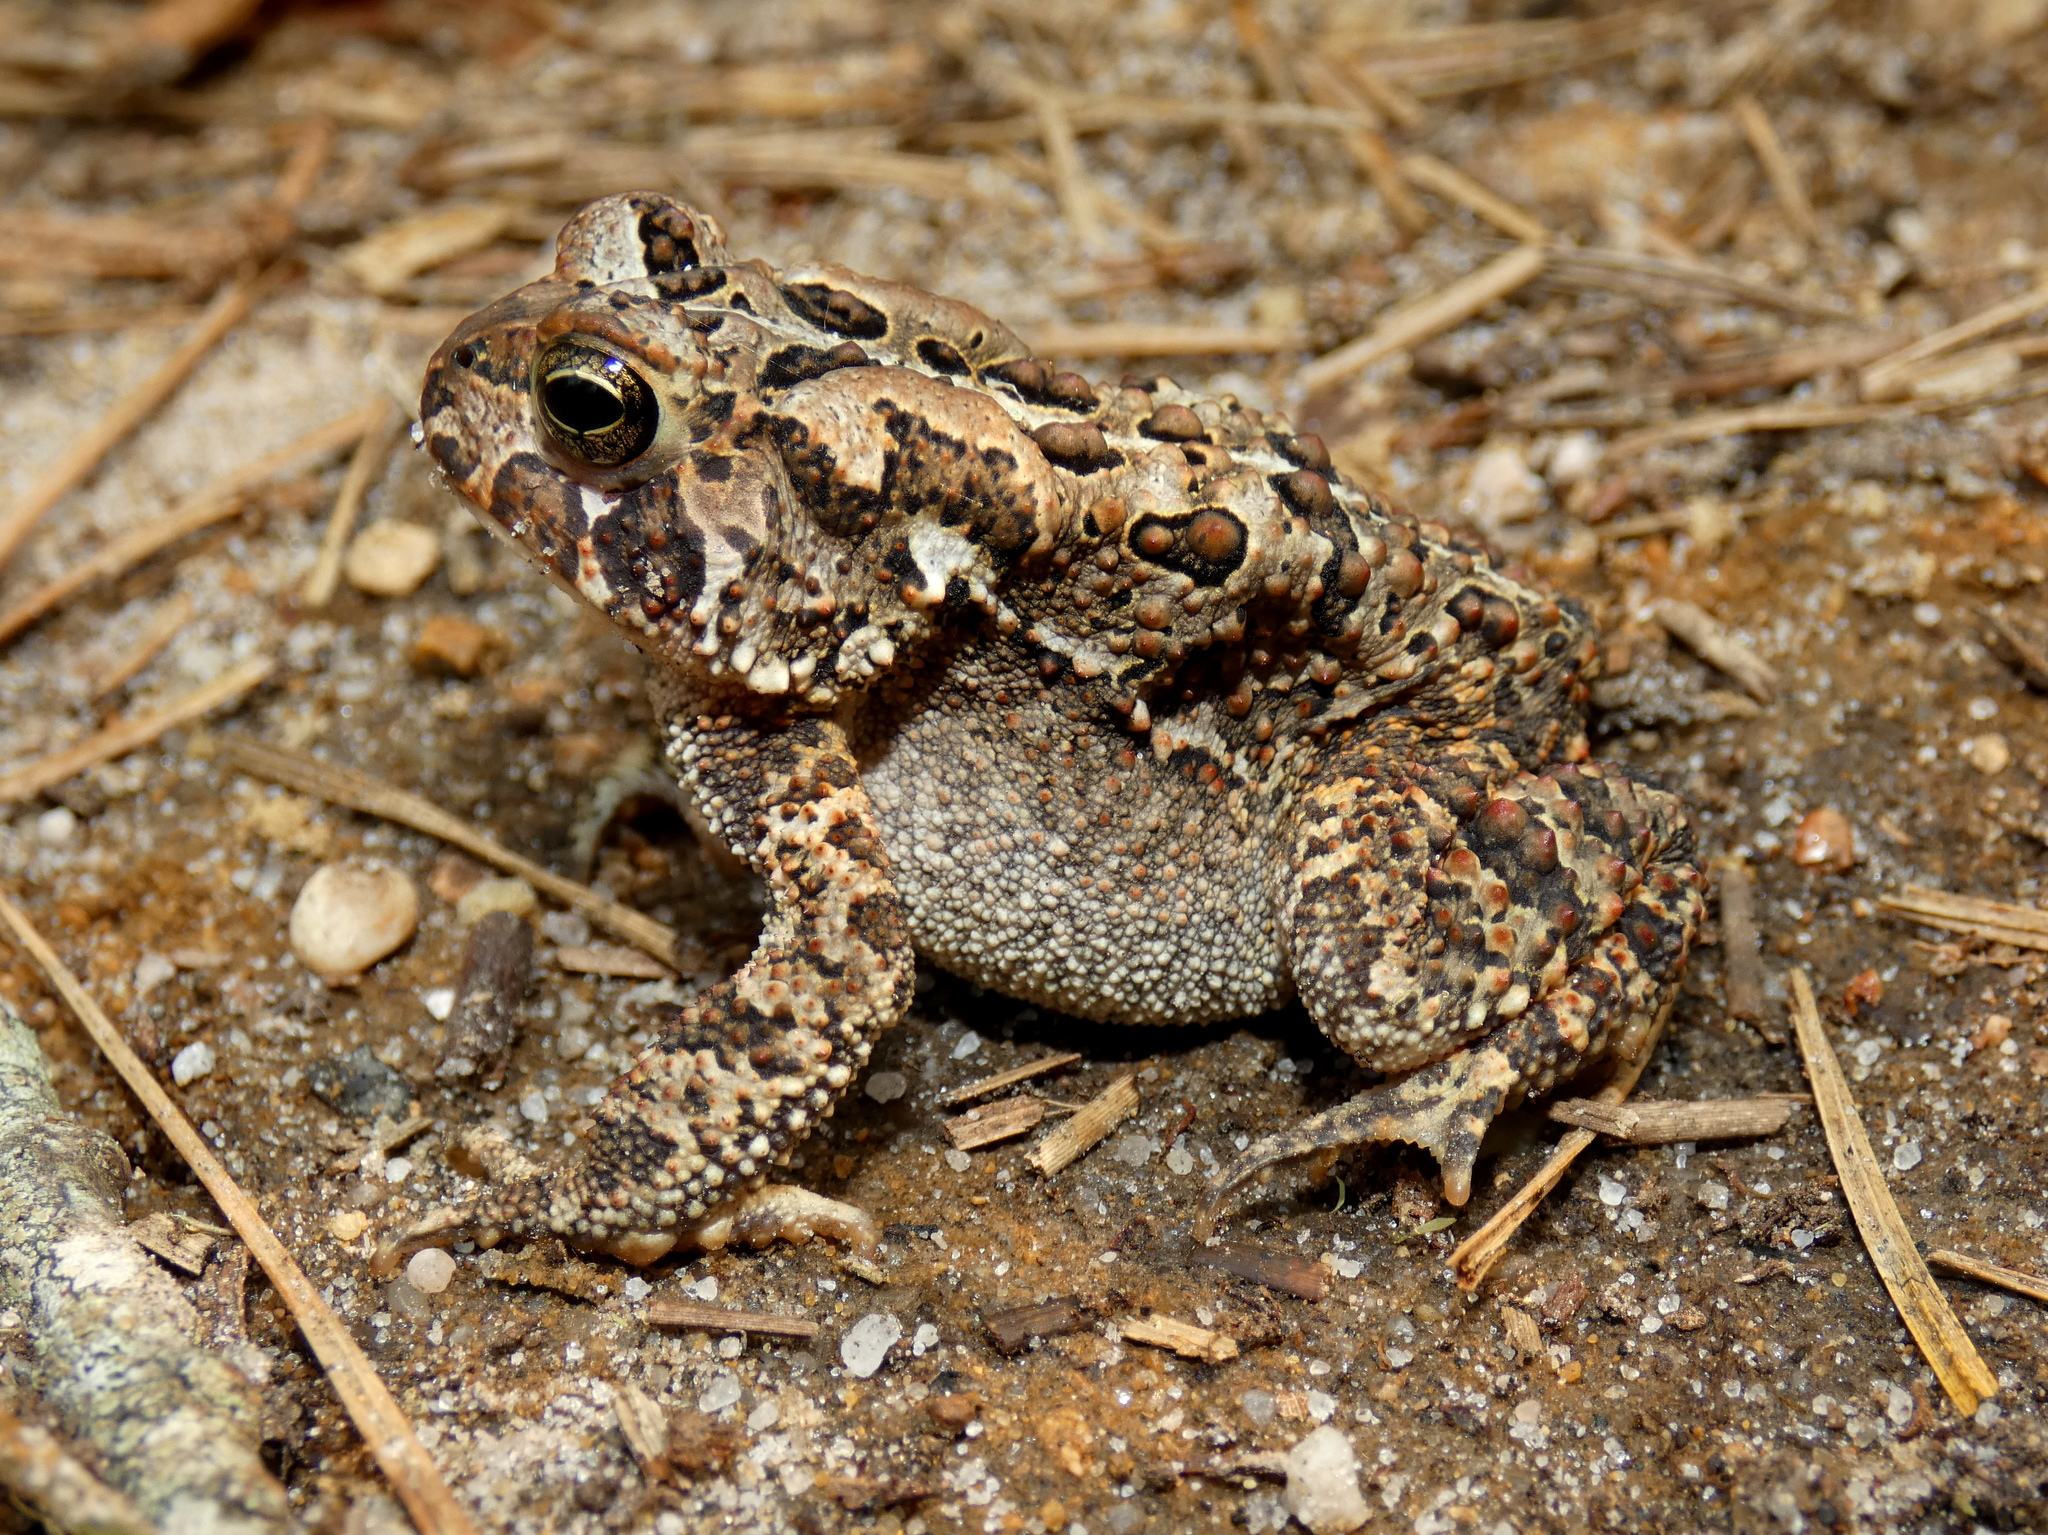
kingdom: Animalia
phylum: Chordata
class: Amphibia
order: Anura
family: Bufonidae
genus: Anaxyrus
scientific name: Anaxyrus americanus
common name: American toad
